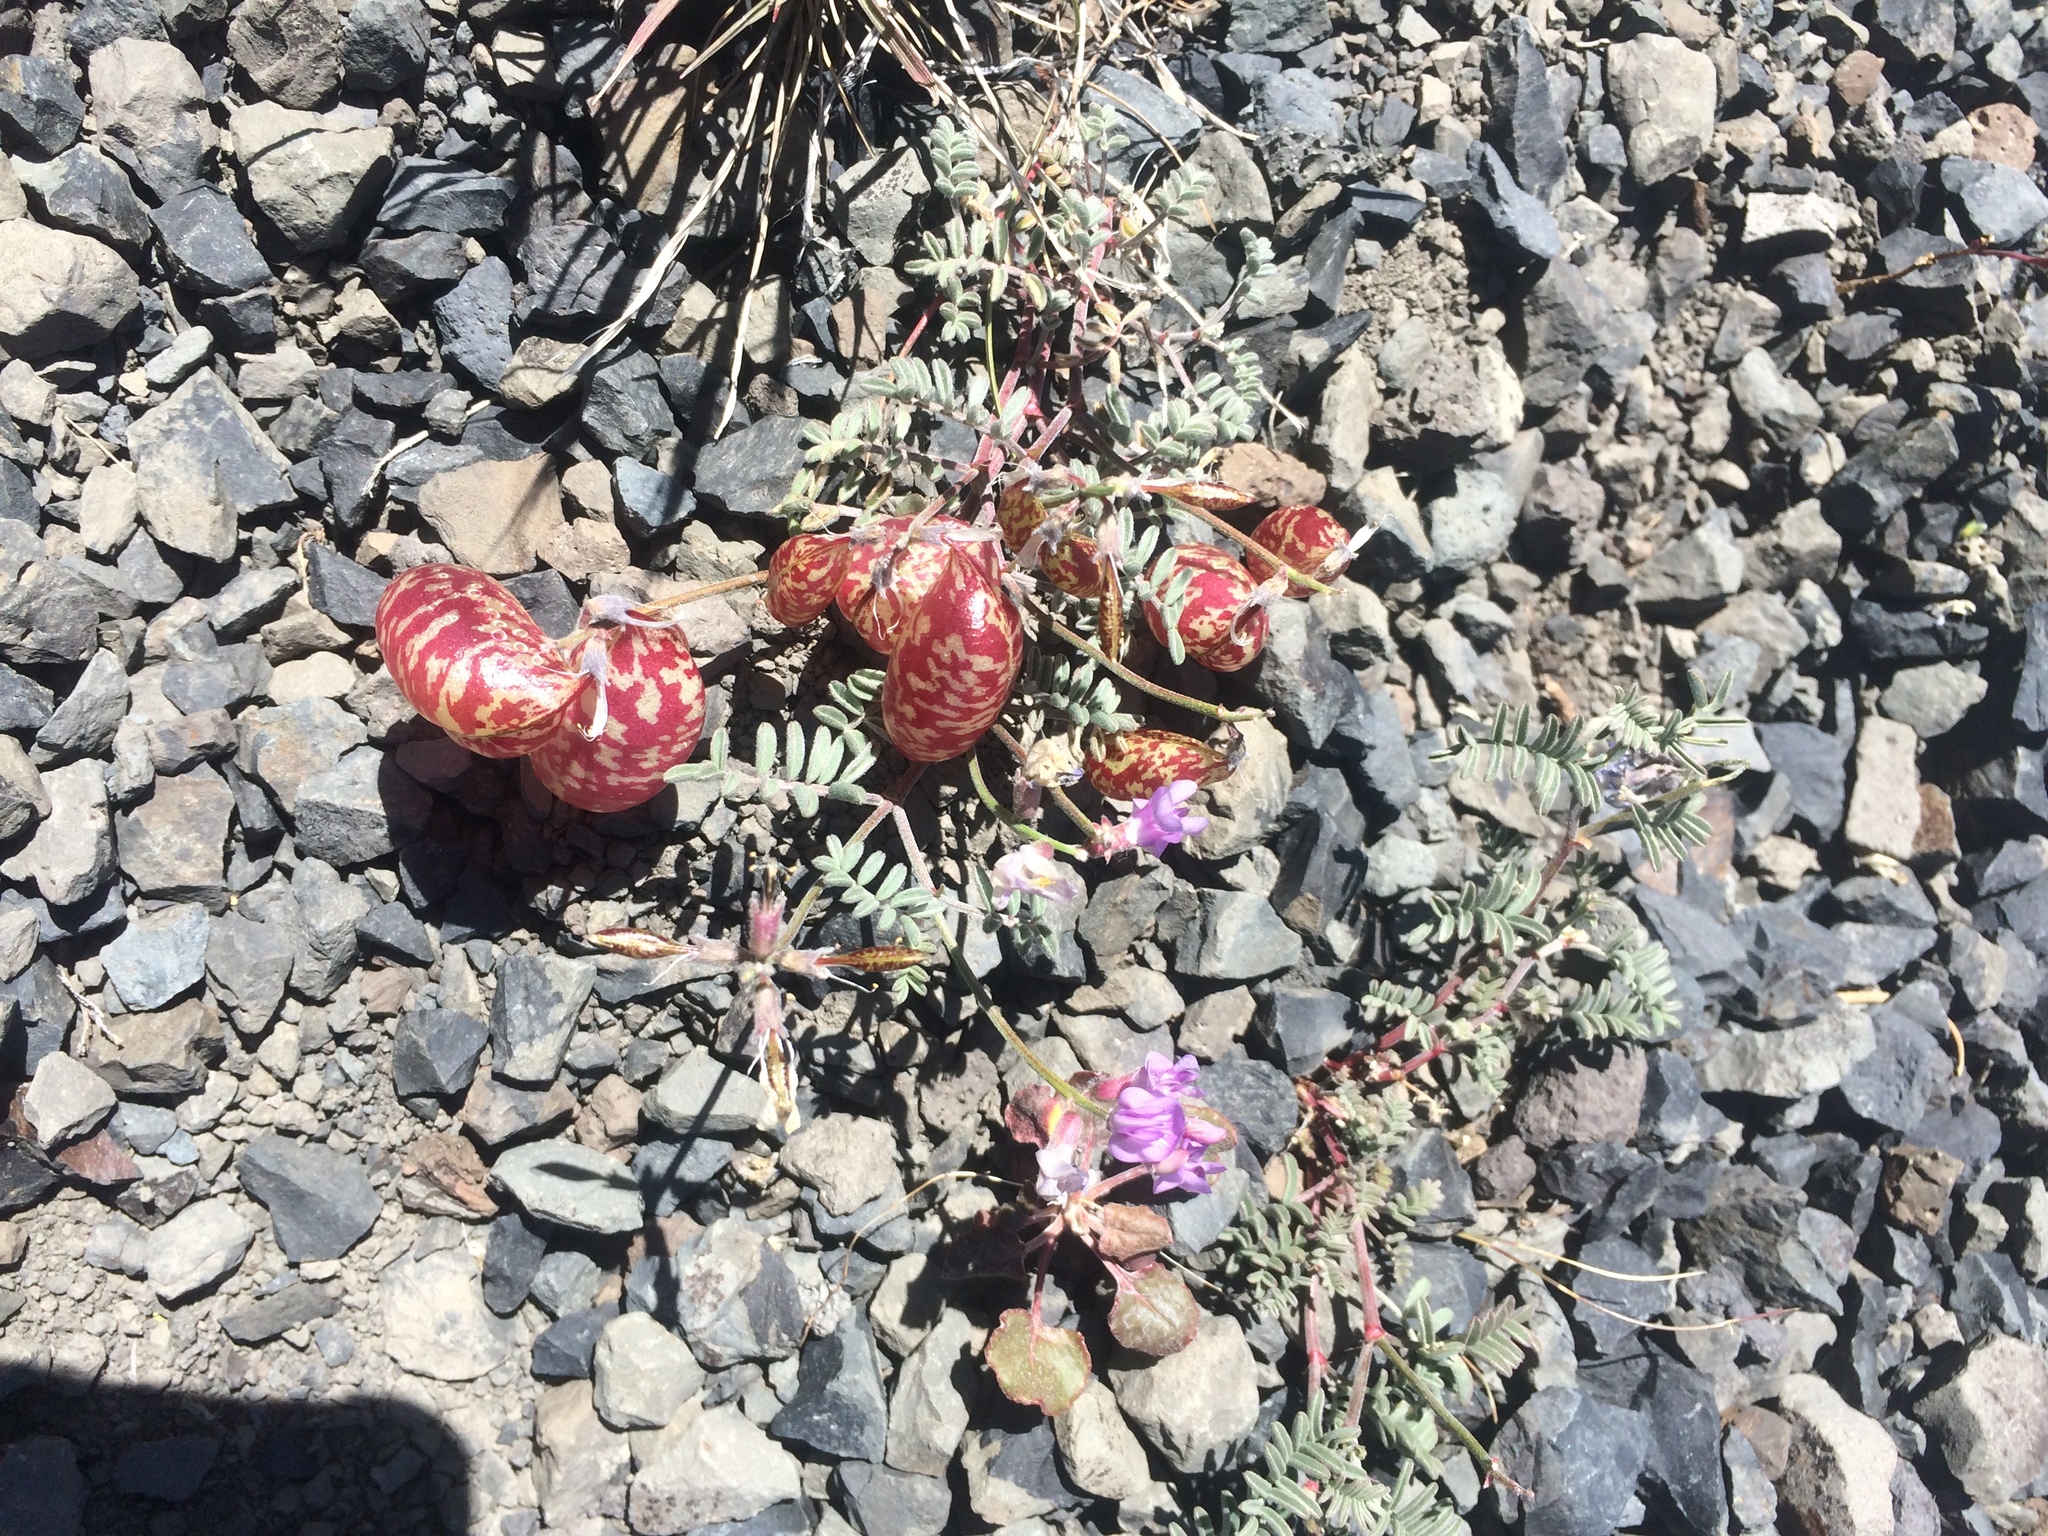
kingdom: Plantae
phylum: Tracheophyta
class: Magnoliopsida
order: Fabales
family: Fabaceae
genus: Astragalus
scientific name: Astragalus whitneyi
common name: Balloonpod milkvetch
